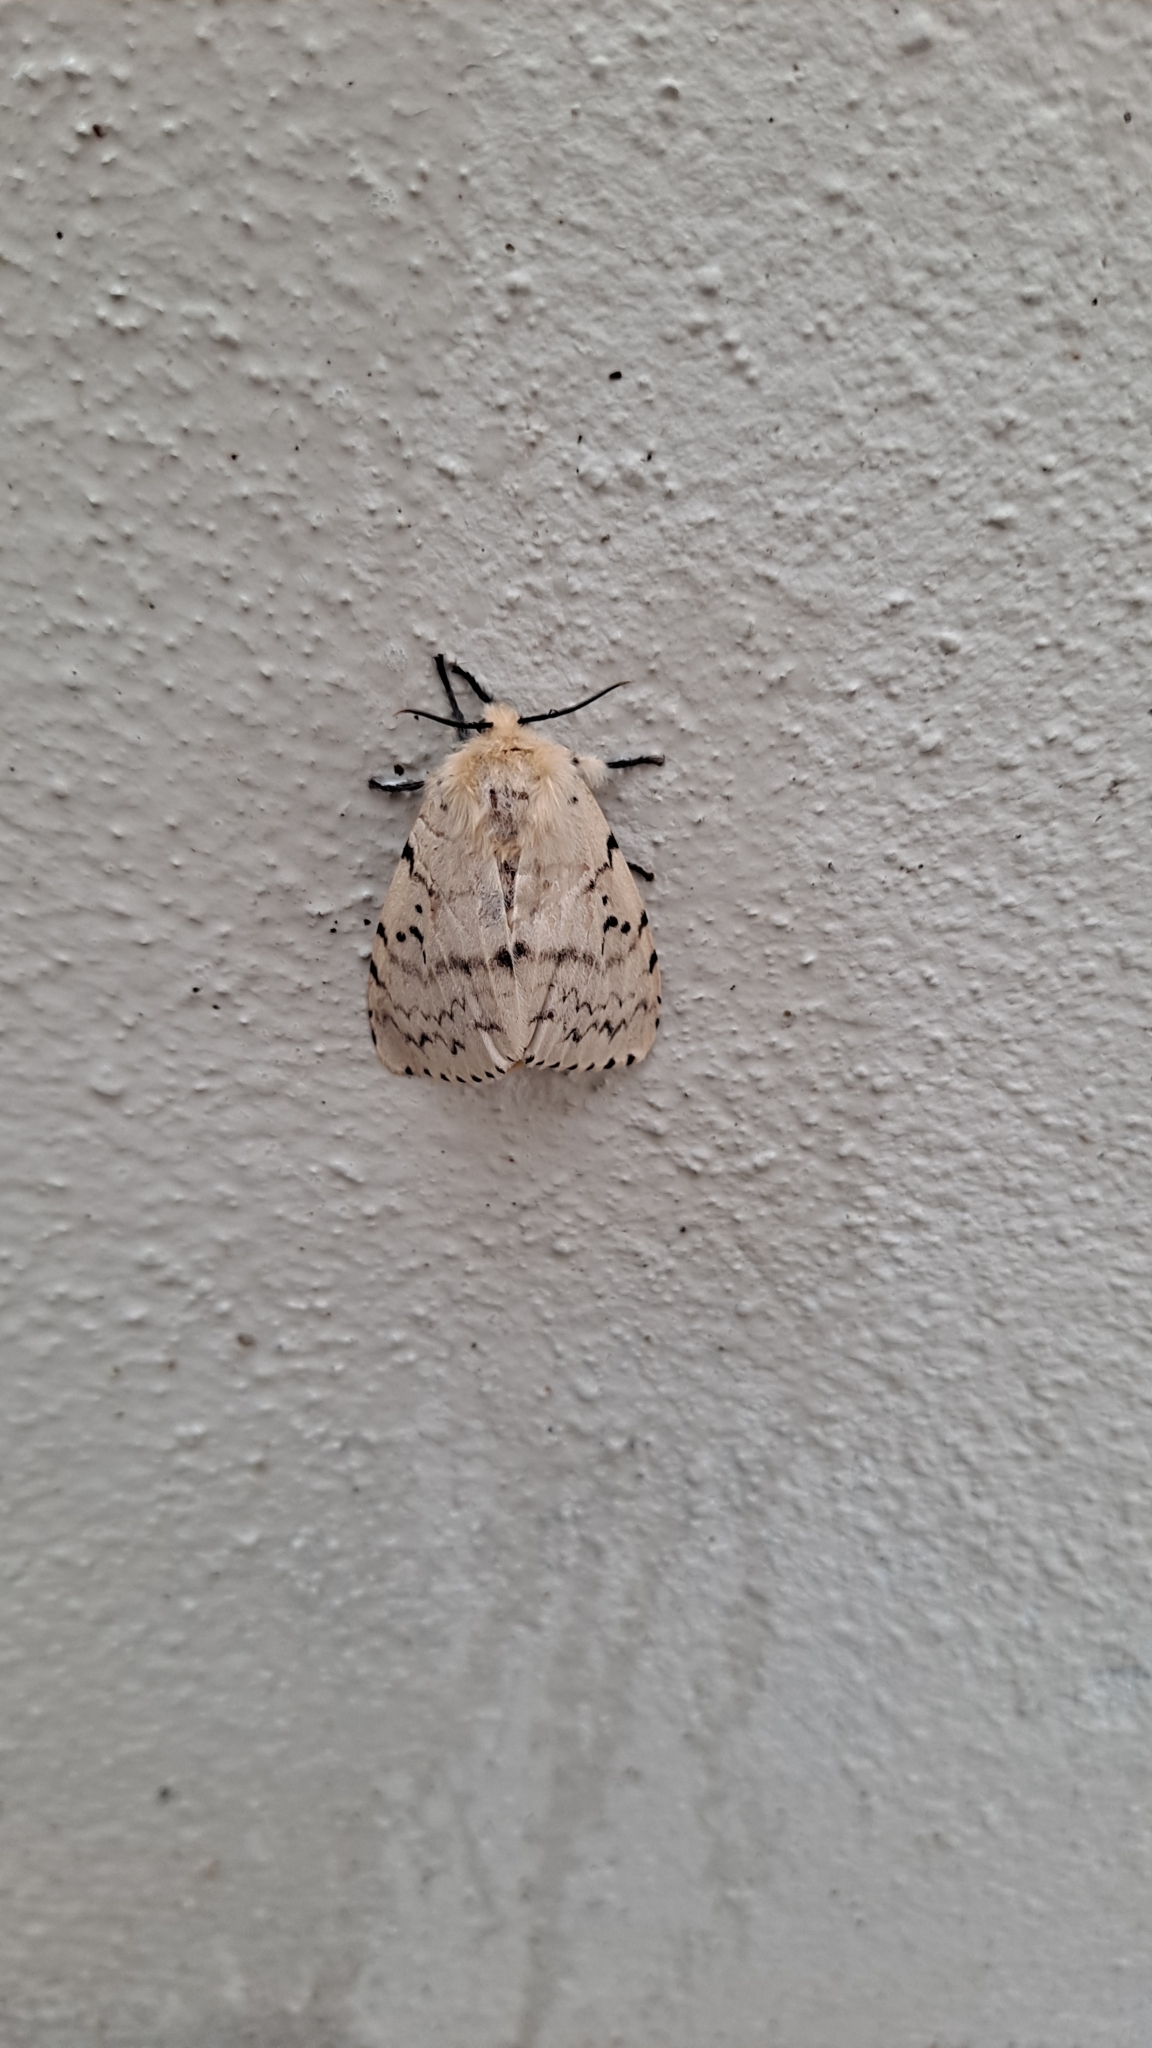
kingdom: Animalia
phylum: Arthropoda
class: Insecta
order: Lepidoptera
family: Erebidae
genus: Lymantria
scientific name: Lymantria dispar
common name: Gypsy moth
